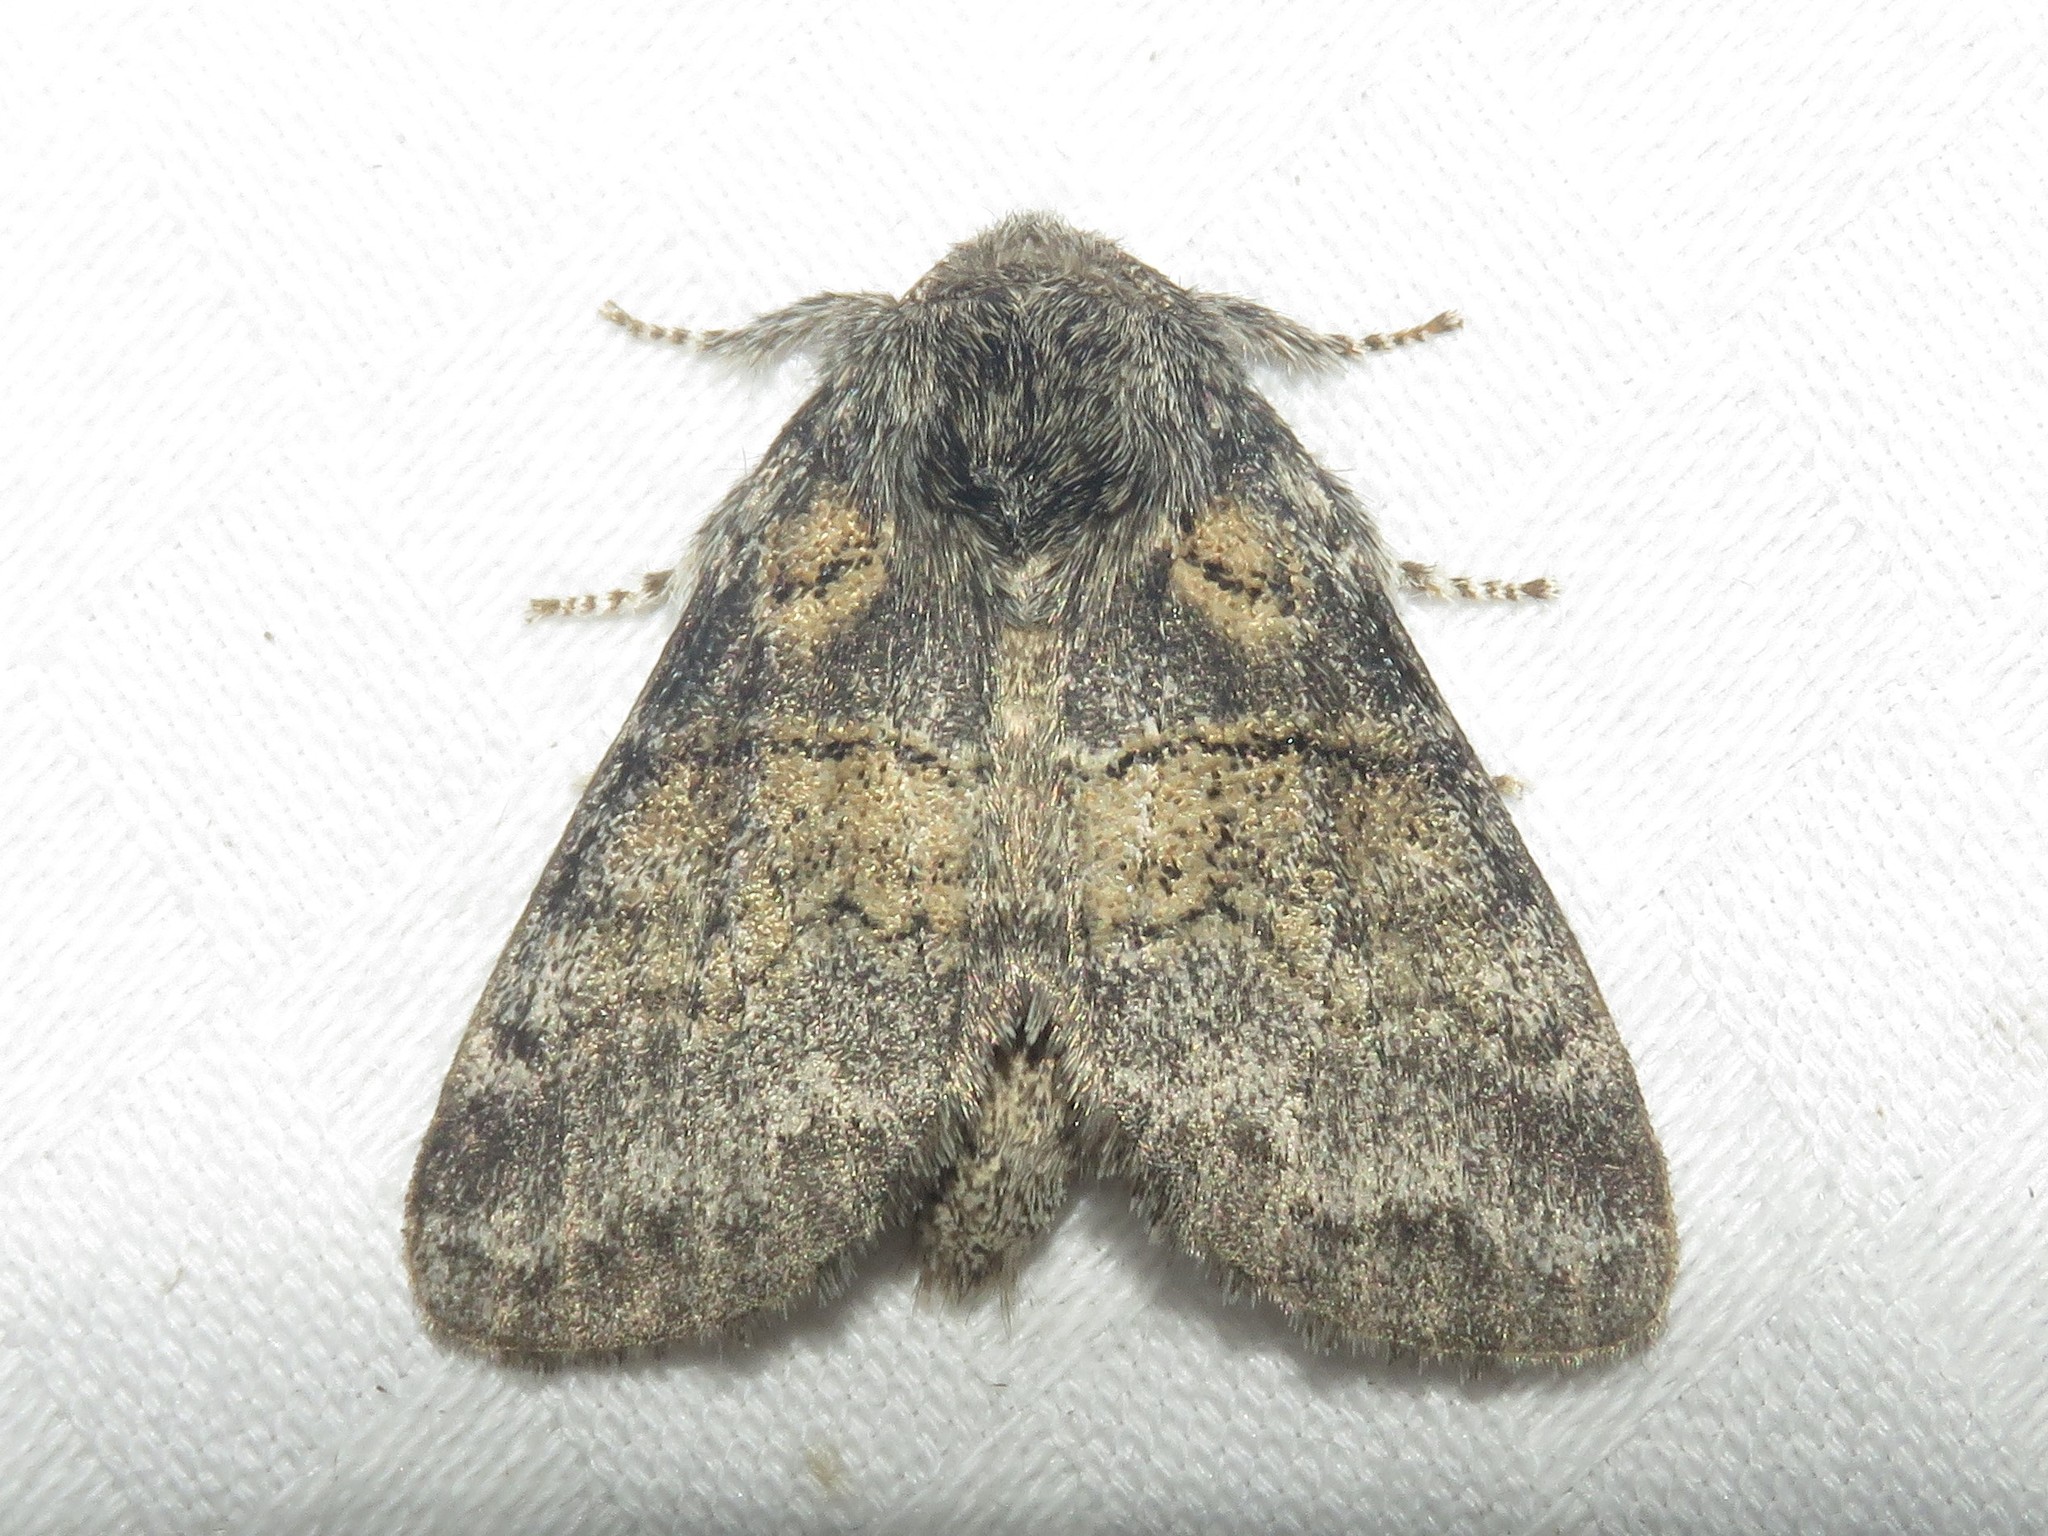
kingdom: Animalia
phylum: Arthropoda
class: Insecta
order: Lepidoptera
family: Notodontidae
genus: Gluphisia
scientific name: Gluphisia septentrionis
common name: Common gluphisia
